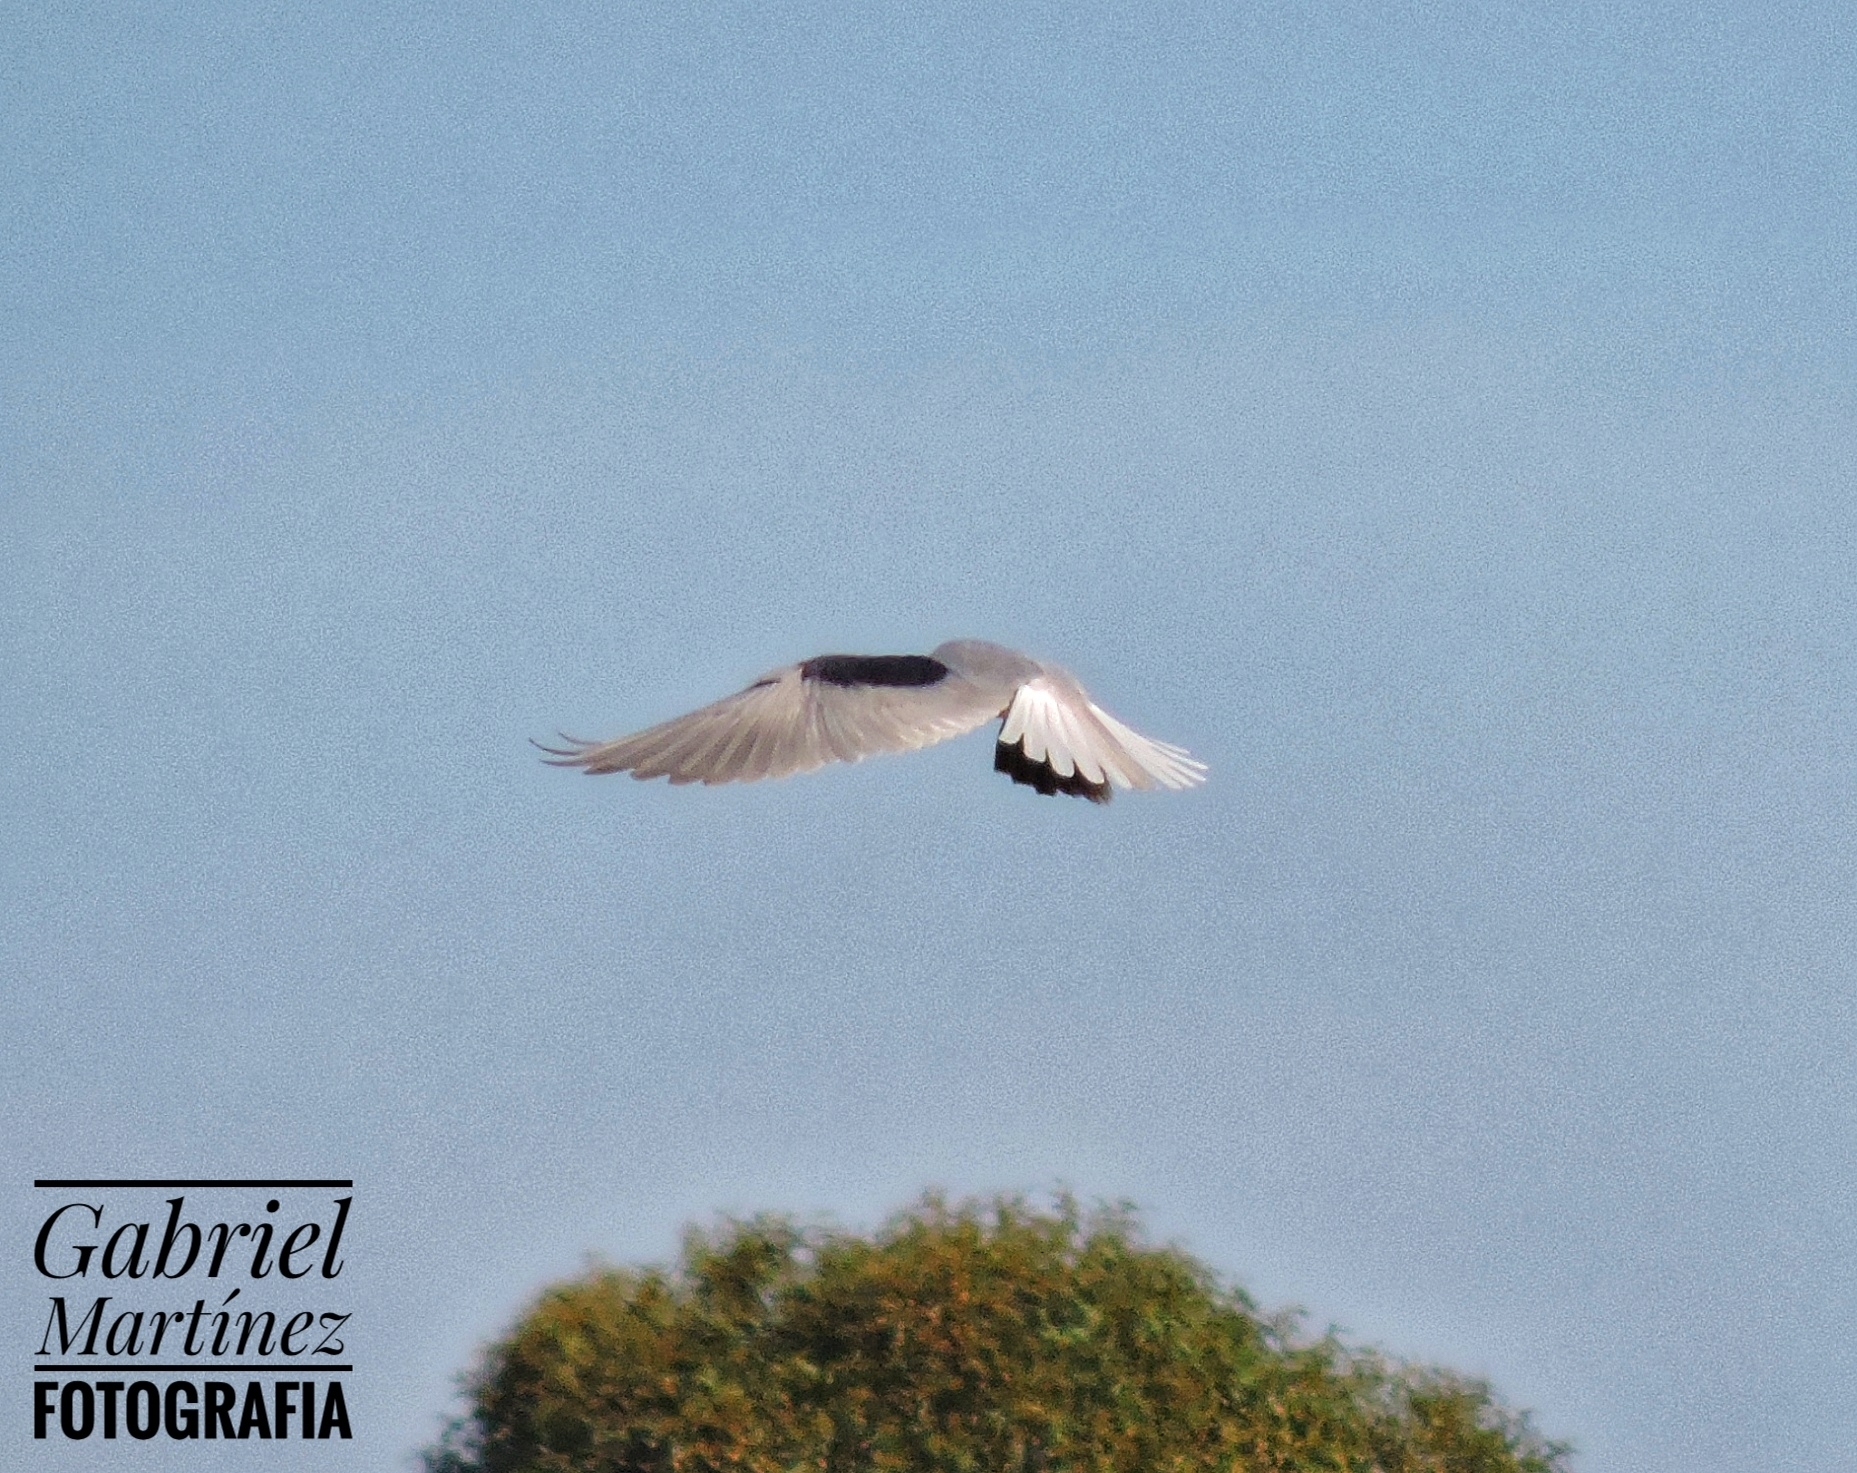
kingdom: Animalia
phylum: Chordata
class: Aves
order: Accipitriformes
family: Accipitridae
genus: Elanus
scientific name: Elanus leucurus
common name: White-tailed kite
